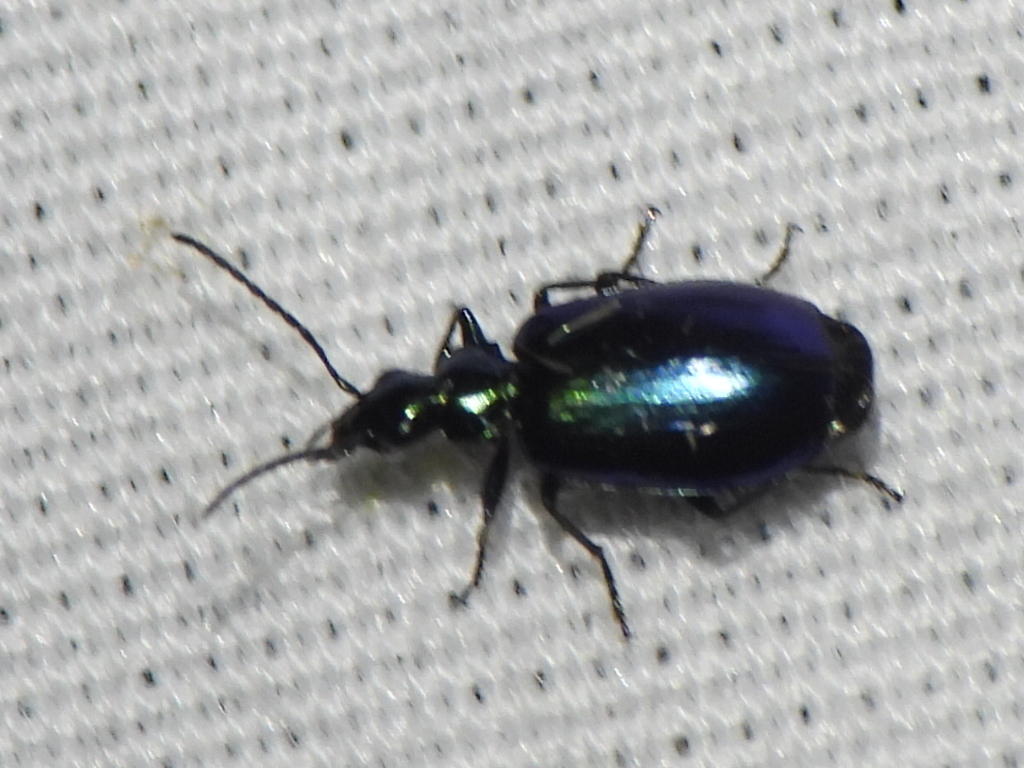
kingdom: Animalia
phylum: Arthropoda
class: Insecta
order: Coleoptera
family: Carabidae
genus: Lebia
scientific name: Lebia viridis
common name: Flower lebia beetle
